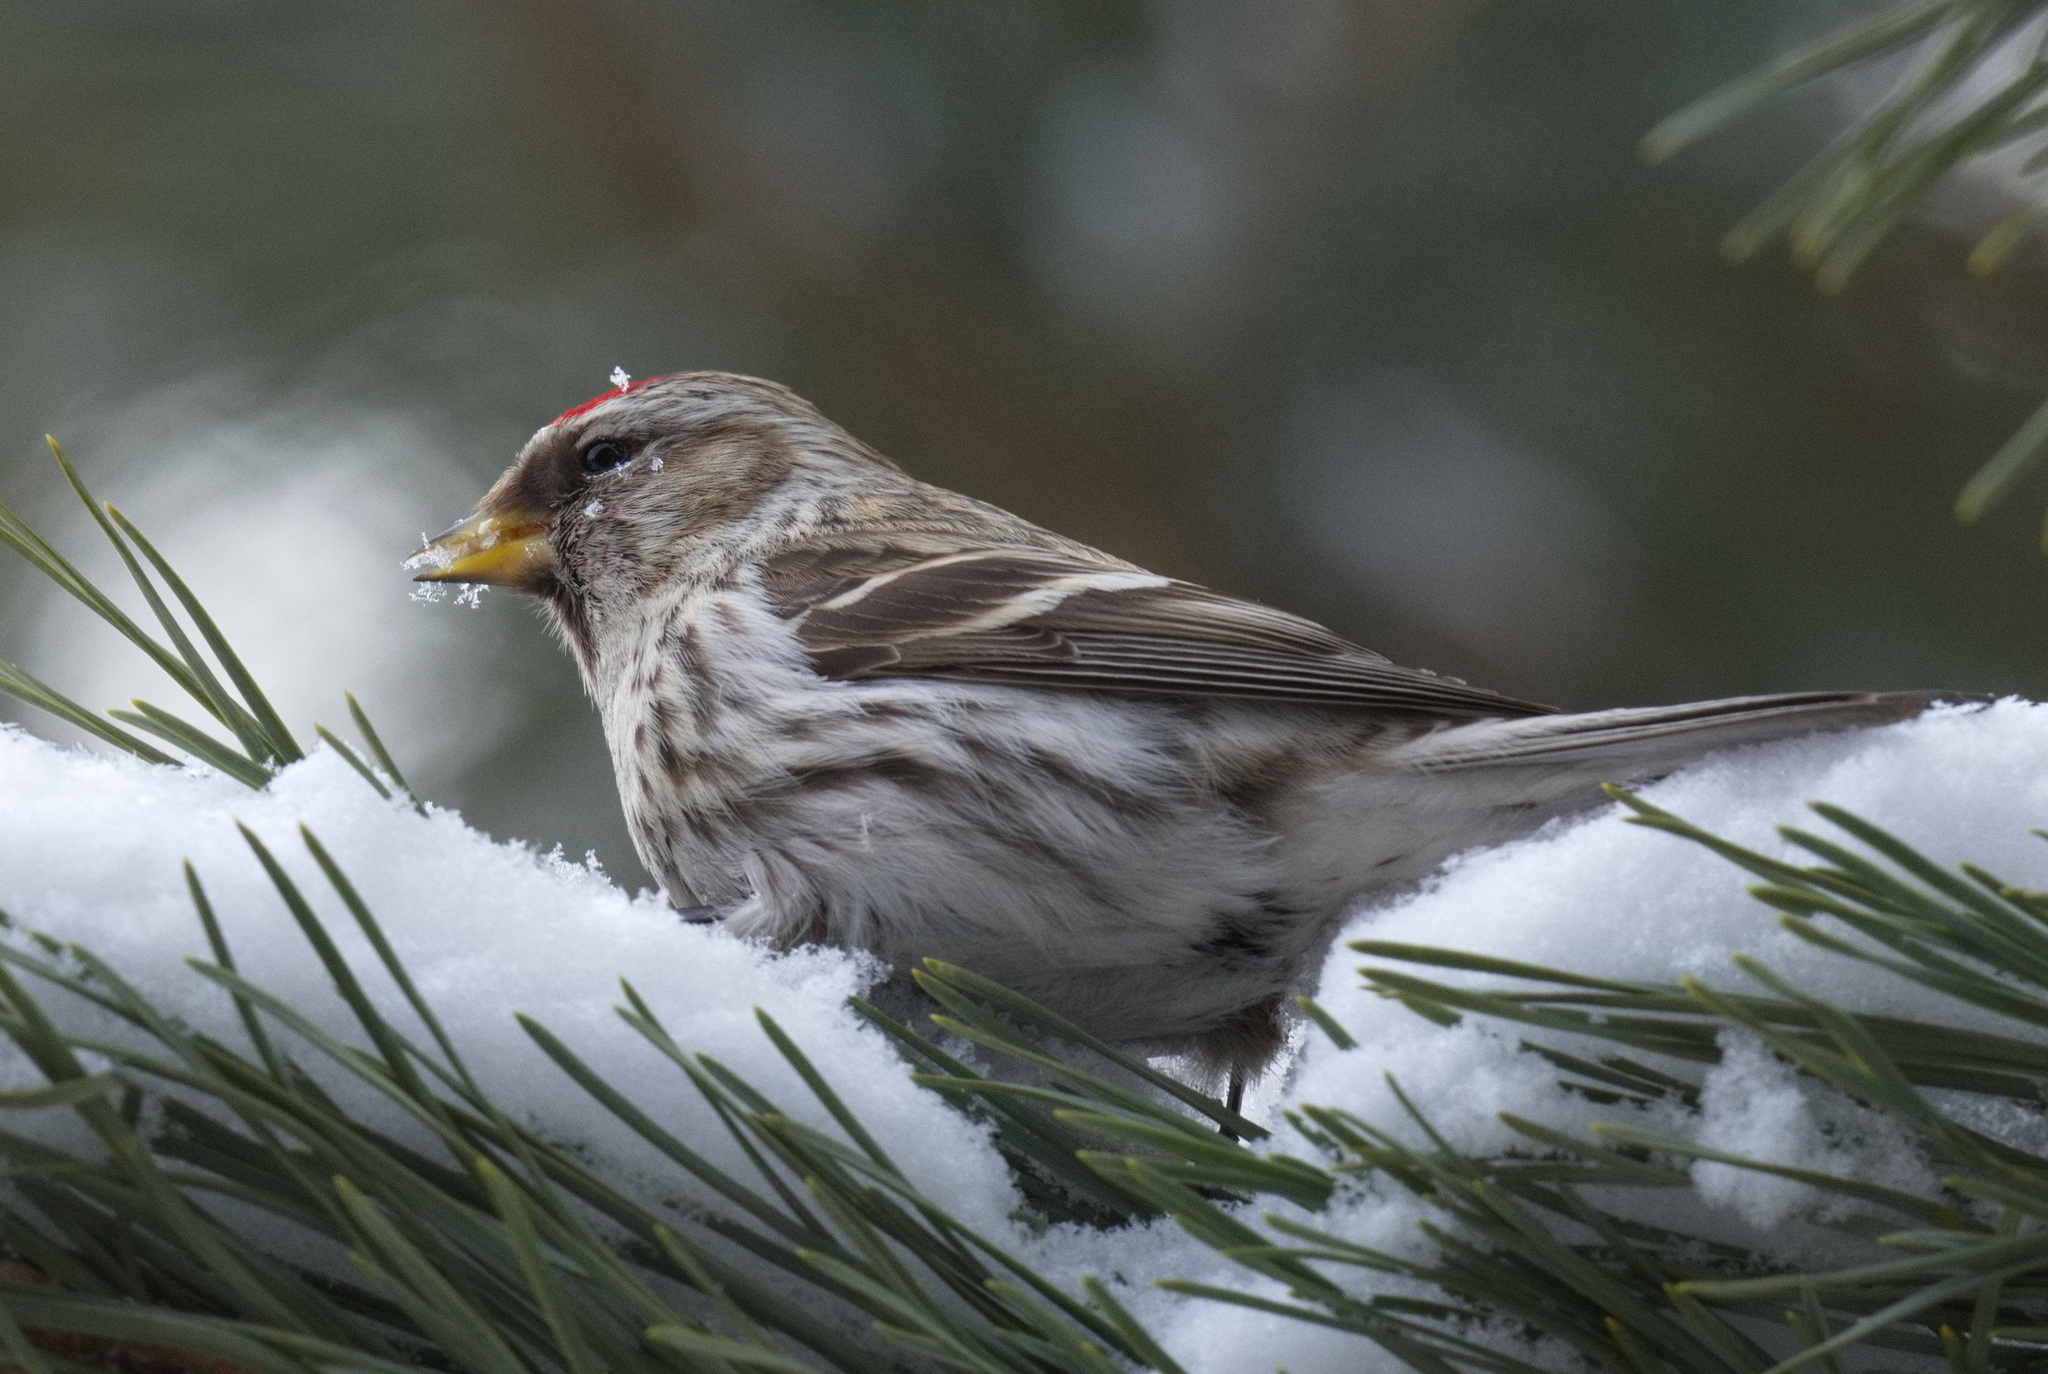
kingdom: Animalia
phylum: Chordata
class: Aves
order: Passeriformes
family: Fringillidae
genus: Acanthis
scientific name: Acanthis flammea
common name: Common redpoll
